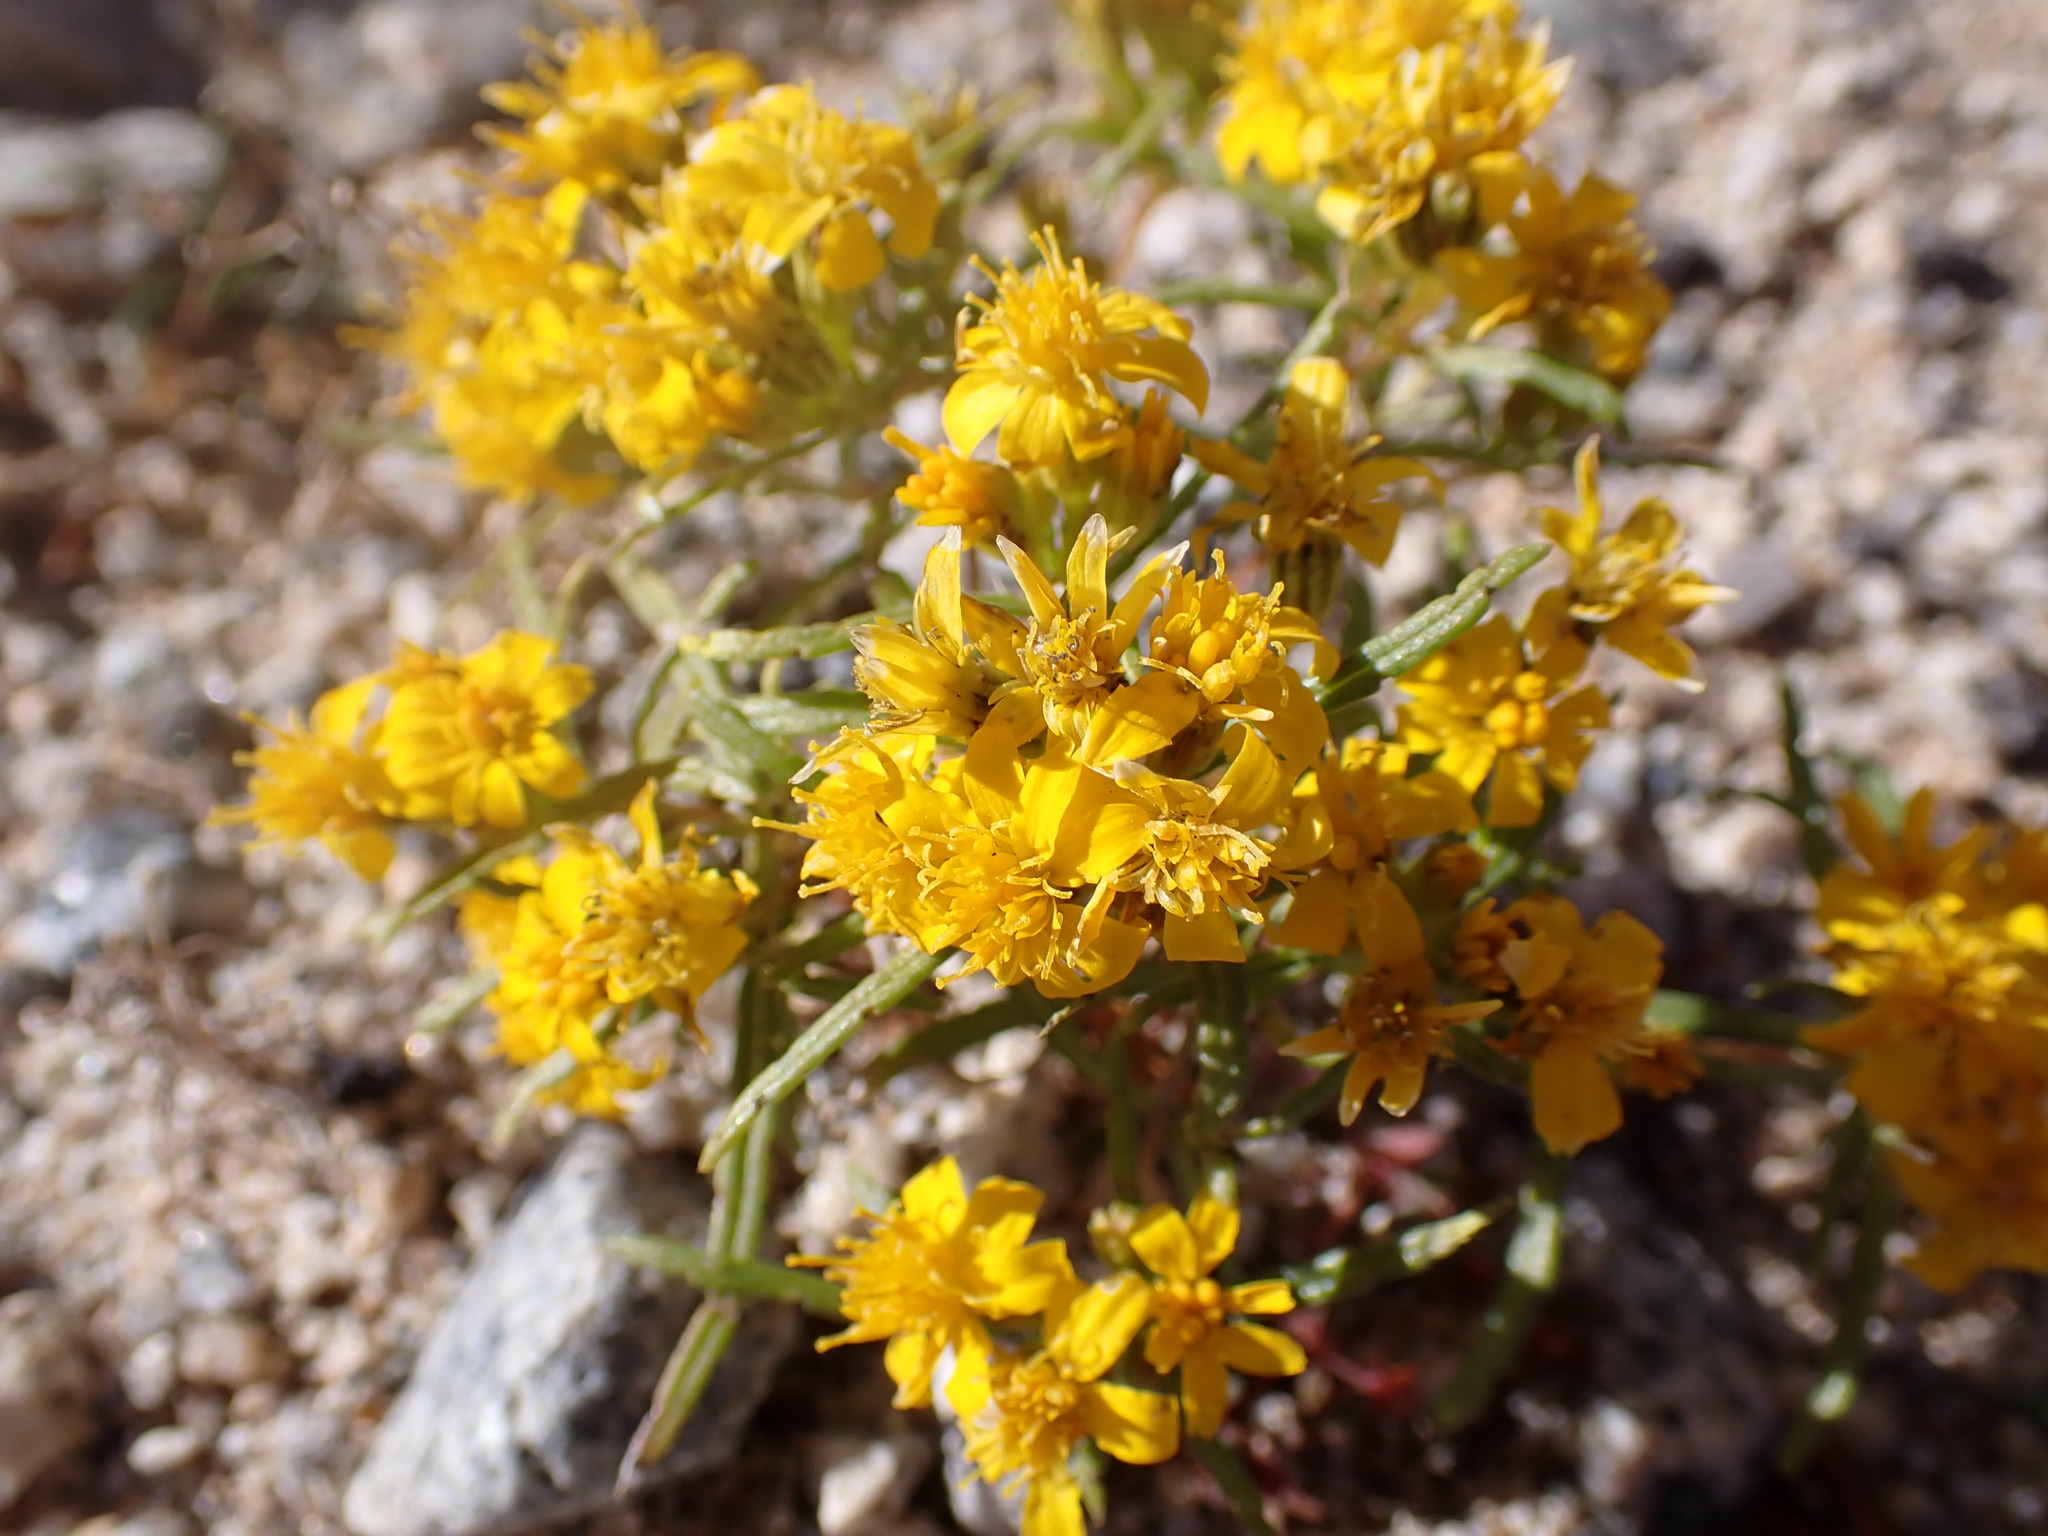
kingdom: Plantae
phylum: Tracheophyta
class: Magnoliopsida
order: Asterales
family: Asteraceae
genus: Pectis
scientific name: Pectis papposa
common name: Many-bristle chinchweed
